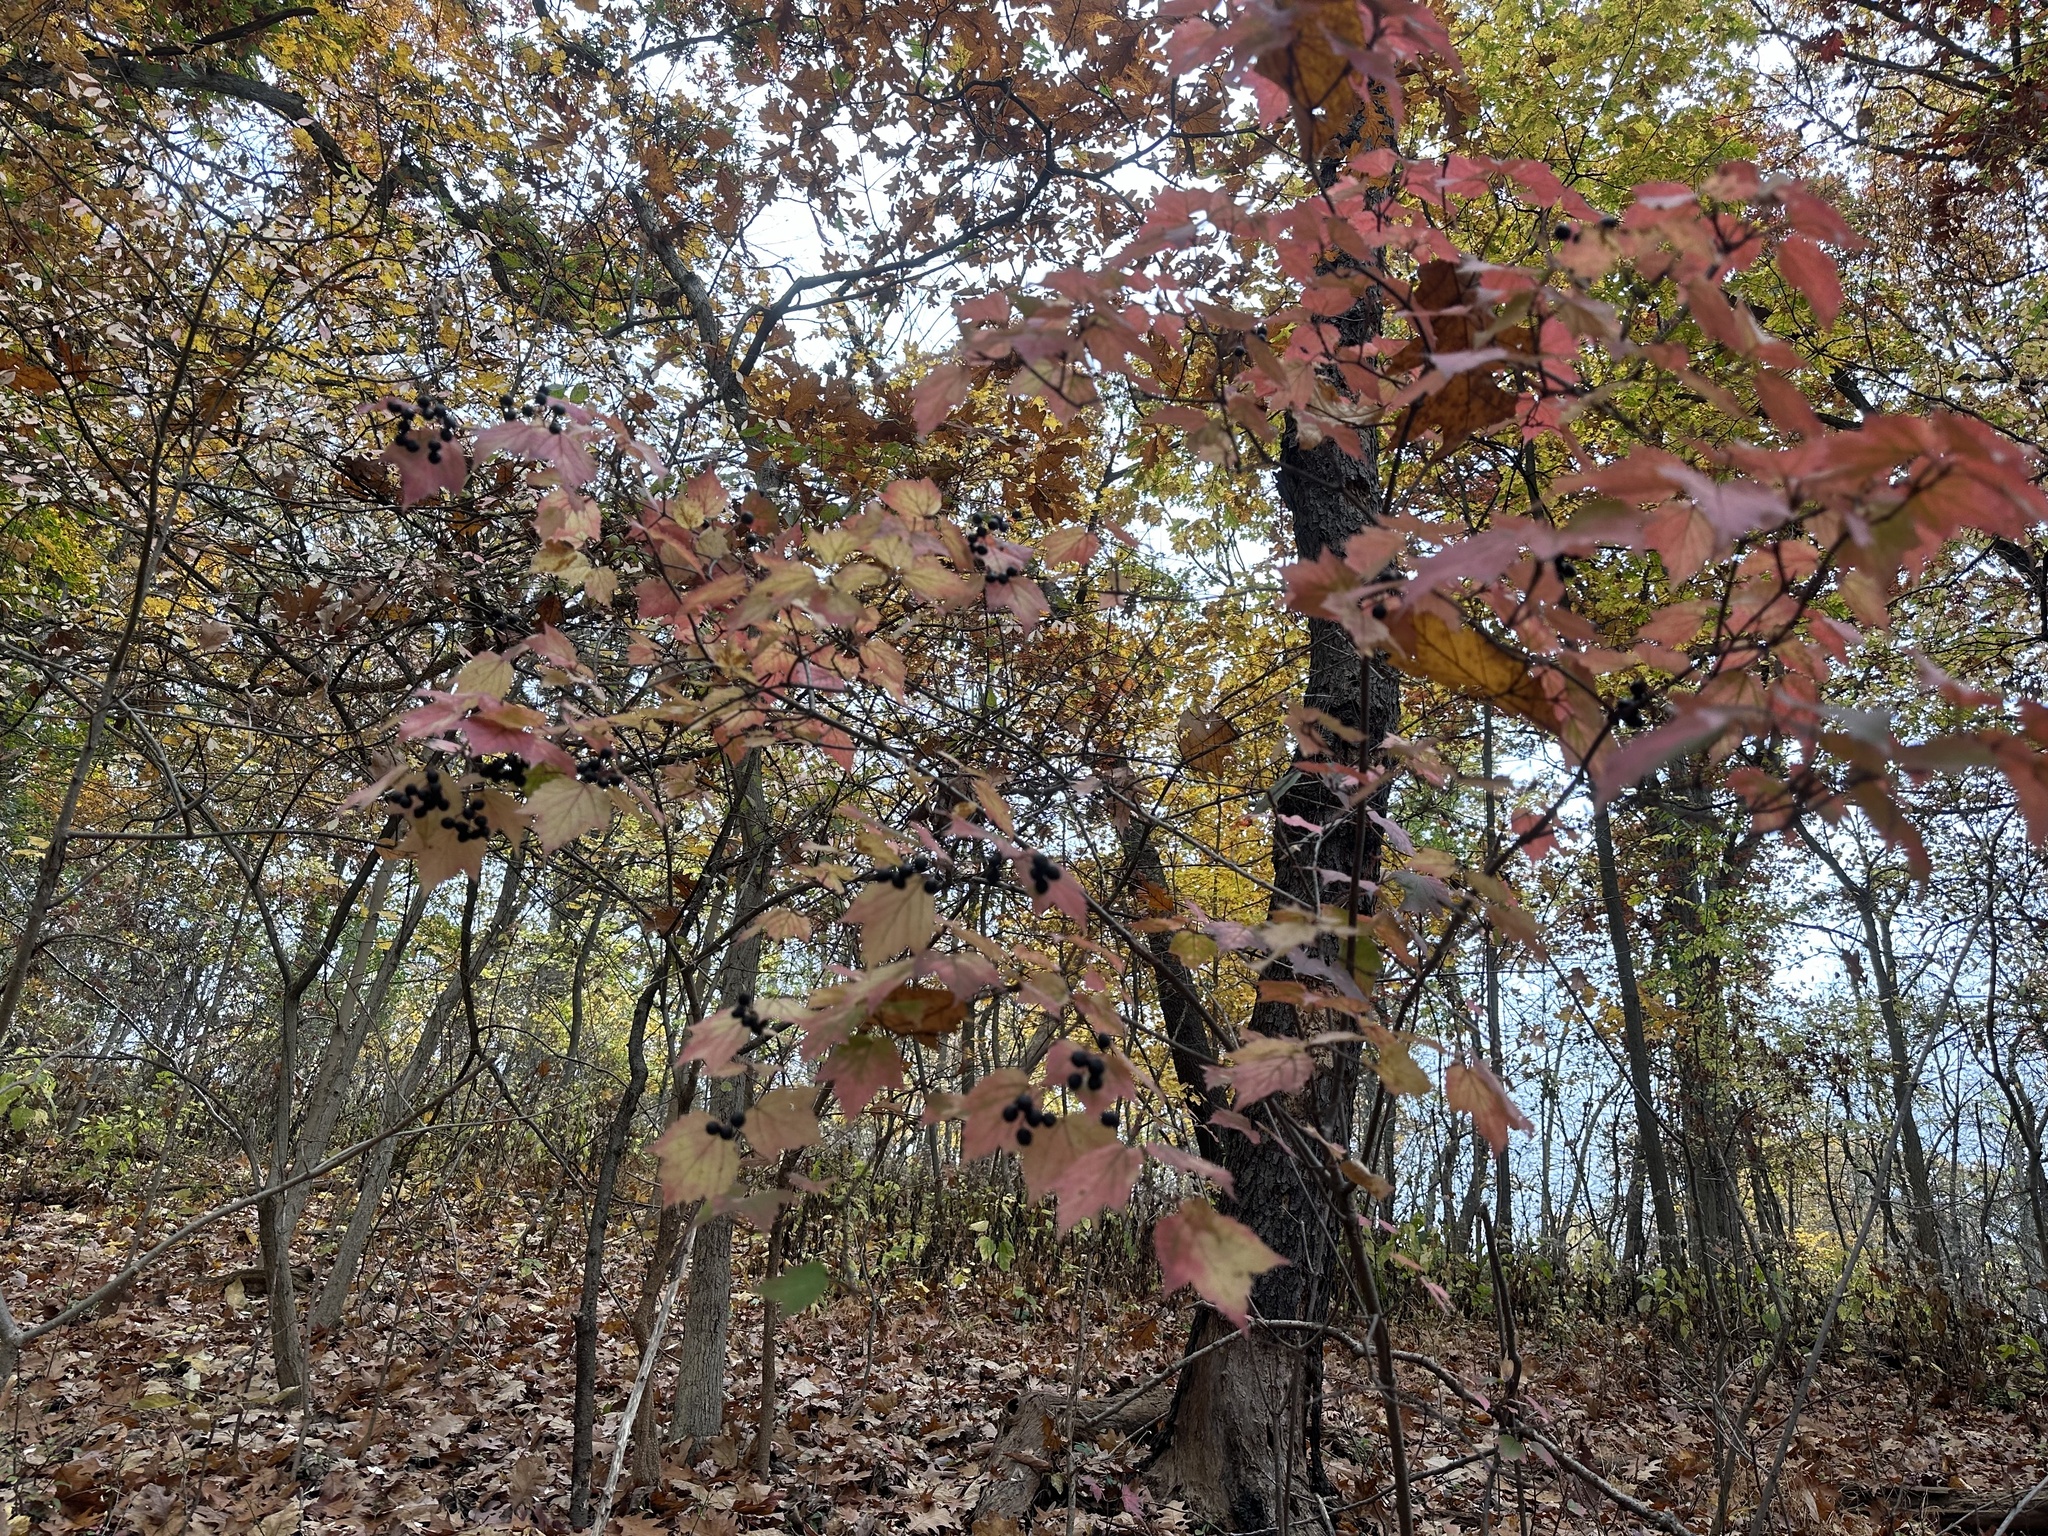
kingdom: Plantae
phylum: Tracheophyta
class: Magnoliopsida
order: Dipsacales
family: Viburnaceae
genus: Viburnum
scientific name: Viburnum acerifolium
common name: Dockmackie
